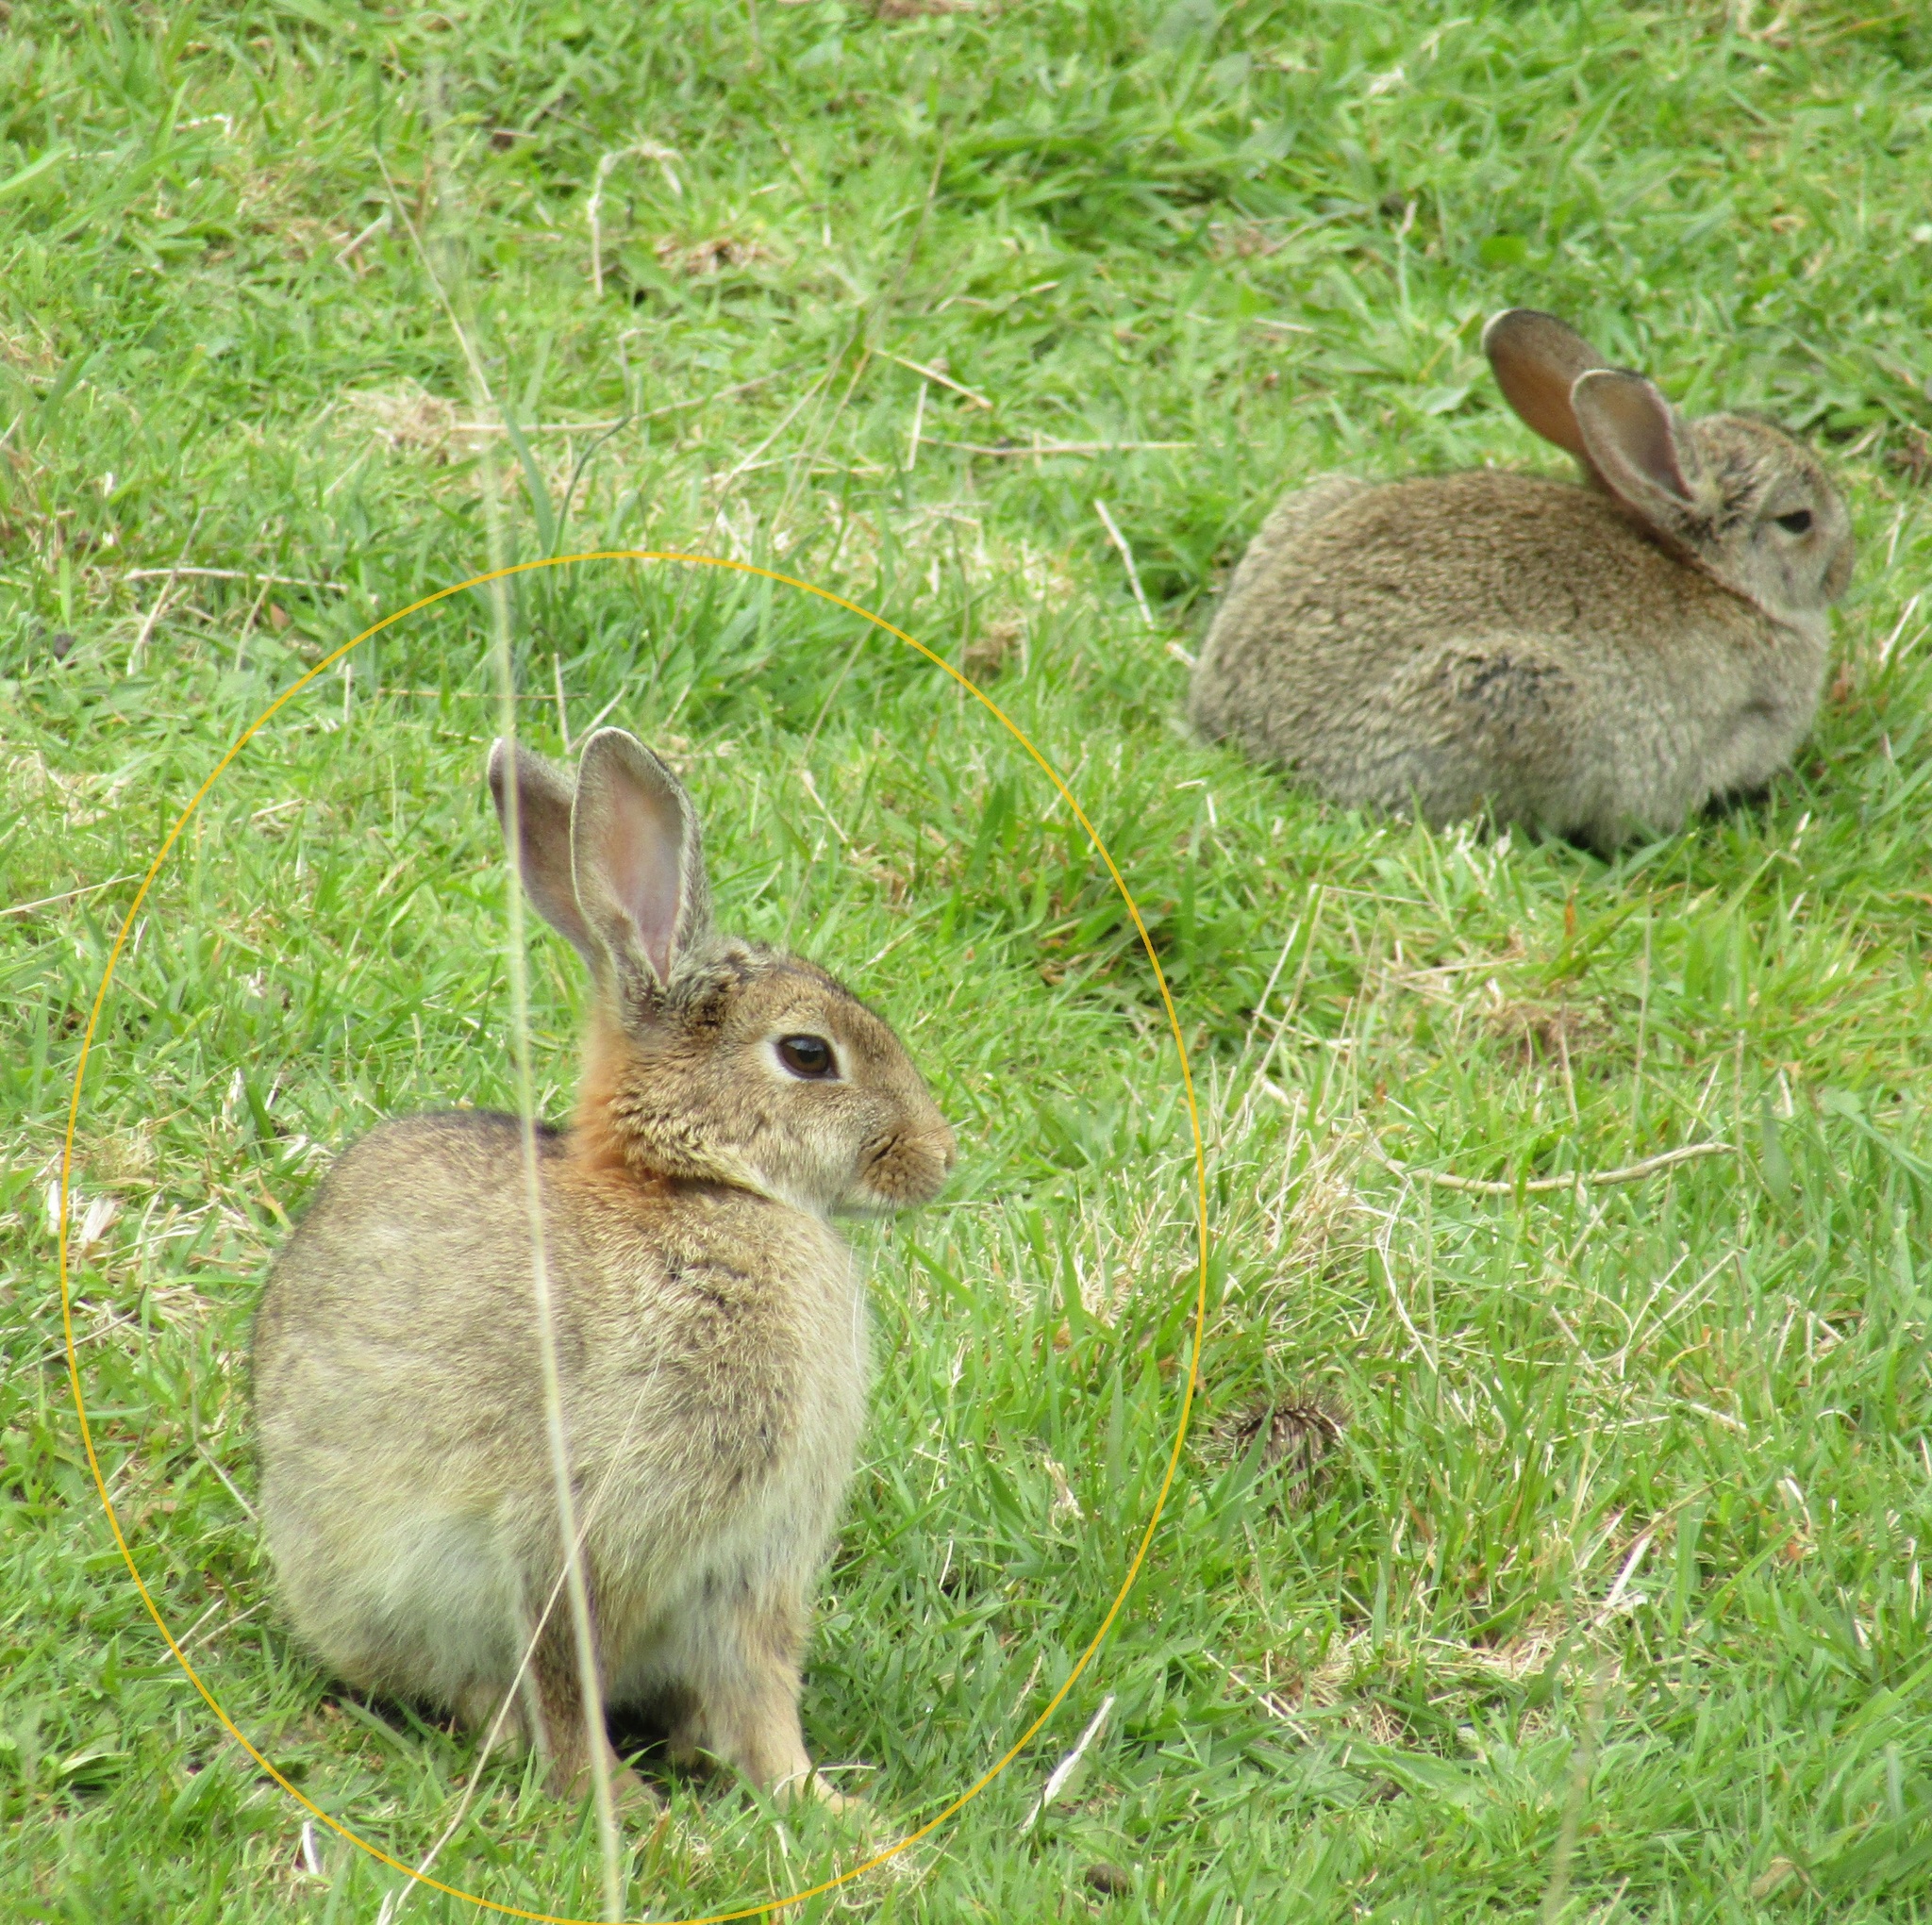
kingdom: Animalia
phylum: Chordata
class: Mammalia
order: Lagomorpha
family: Leporidae
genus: Oryctolagus
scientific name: Oryctolagus cuniculus
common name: European rabbit
